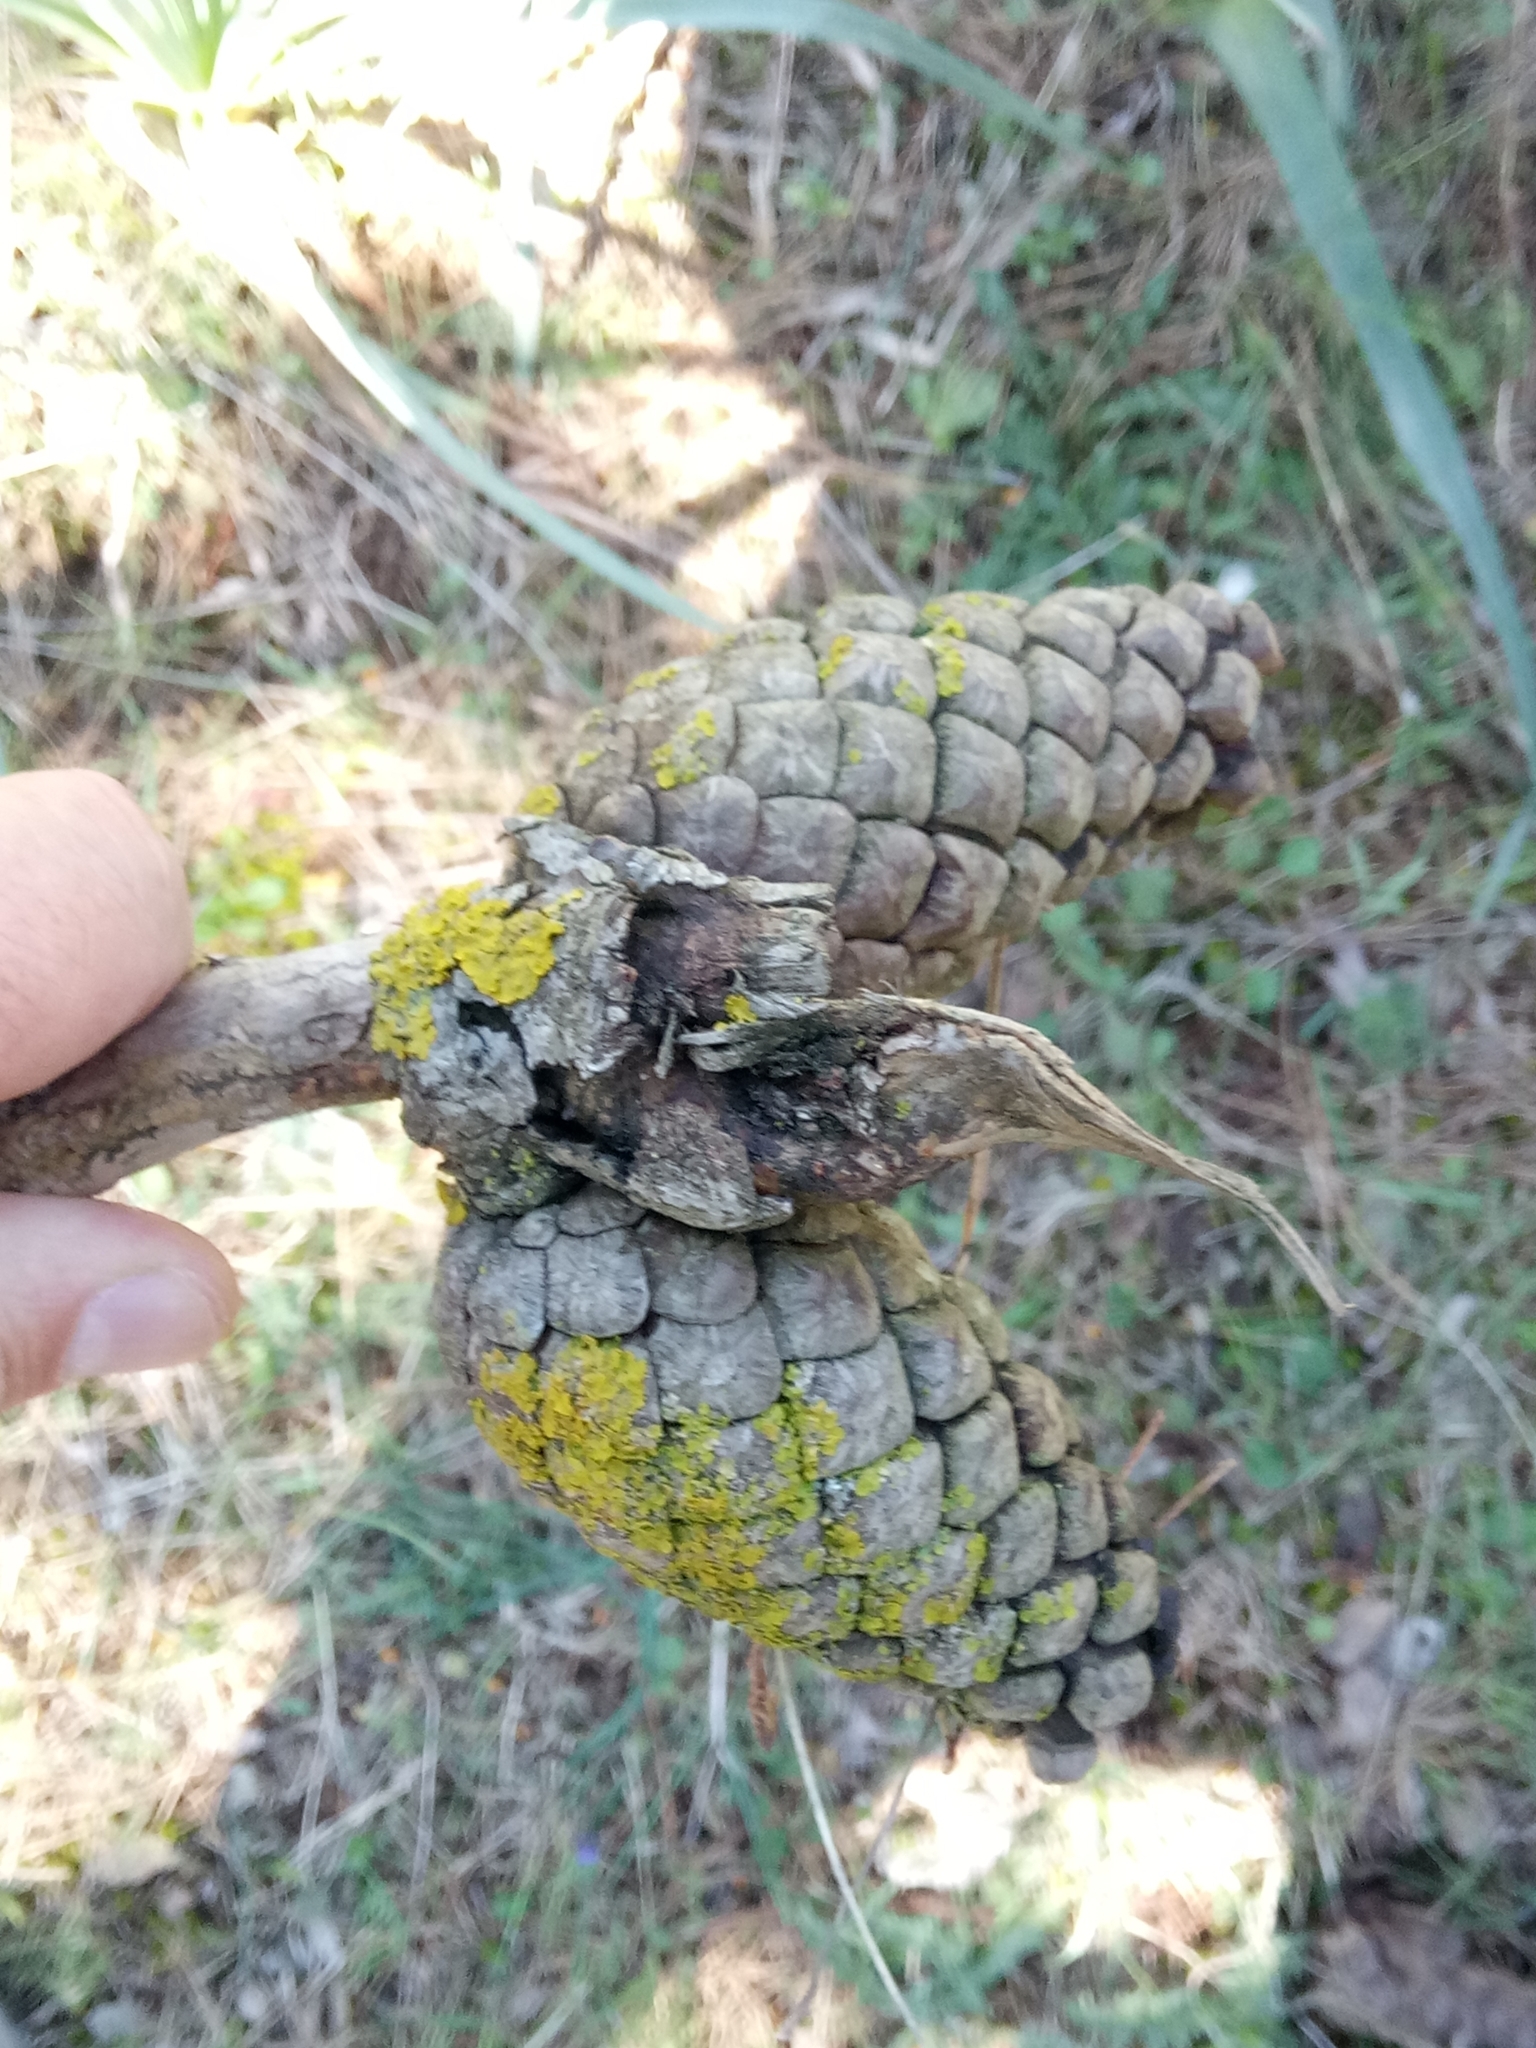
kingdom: Plantae
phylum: Tracheophyta
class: Pinopsida
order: Pinales
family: Pinaceae
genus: Pinus
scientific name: Pinus halepensis
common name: Aleppo pine
